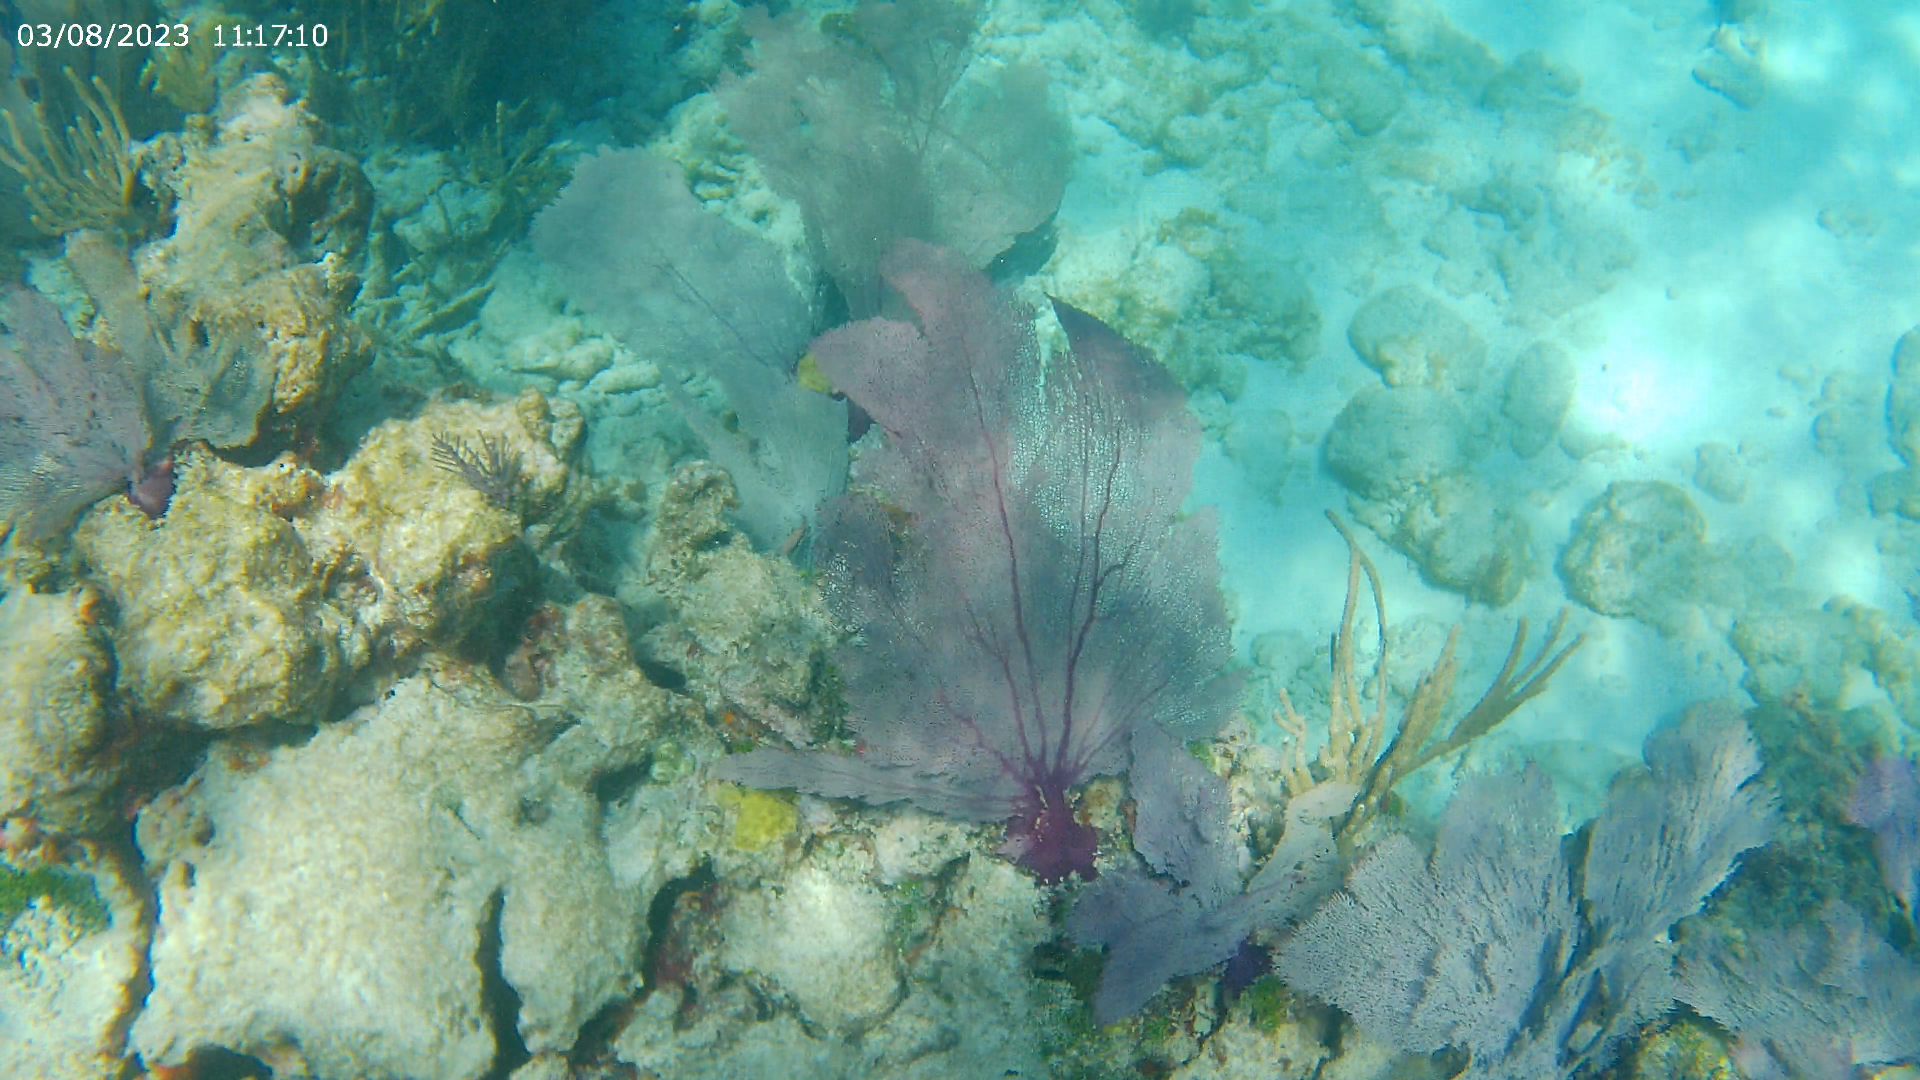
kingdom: Animalia
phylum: Cnidaria
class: Anthozoa
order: Malacalcyonacea
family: Gorgoniidae
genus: Gorgonia
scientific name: Gorgonia ventalina
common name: Common sea fan
